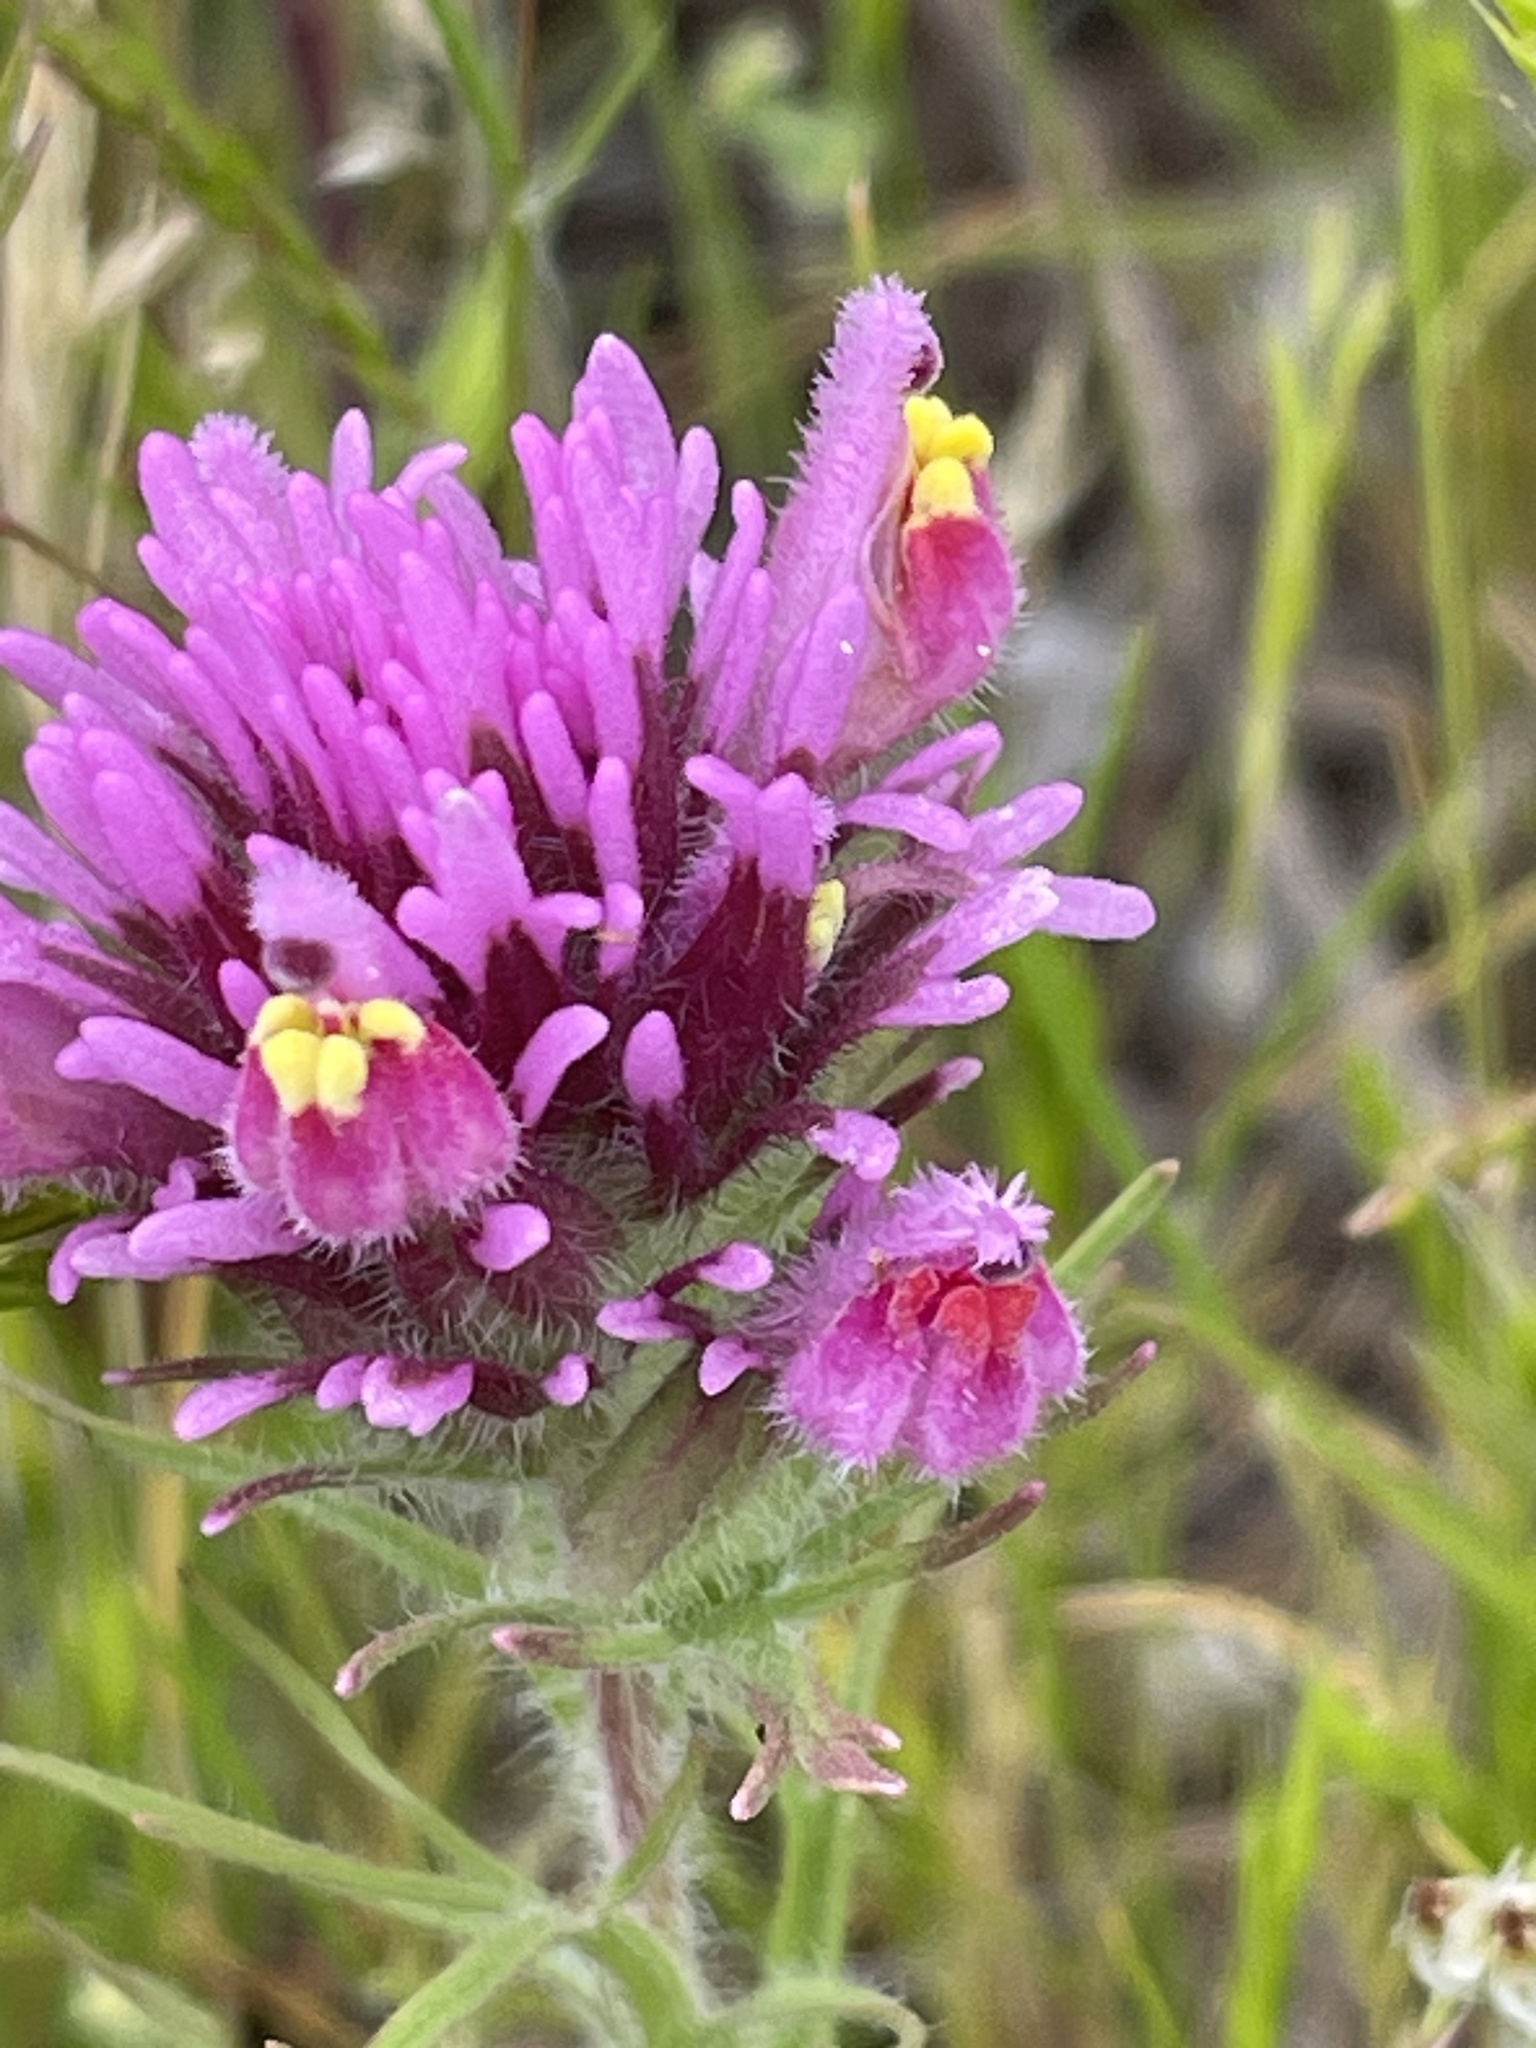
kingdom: Plantae
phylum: Tracheophyta
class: Magnoliopsida
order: Lamiales
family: Orobanchaceae
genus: Castilleja
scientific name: Castilleja exserta
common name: Purple owl-clover
